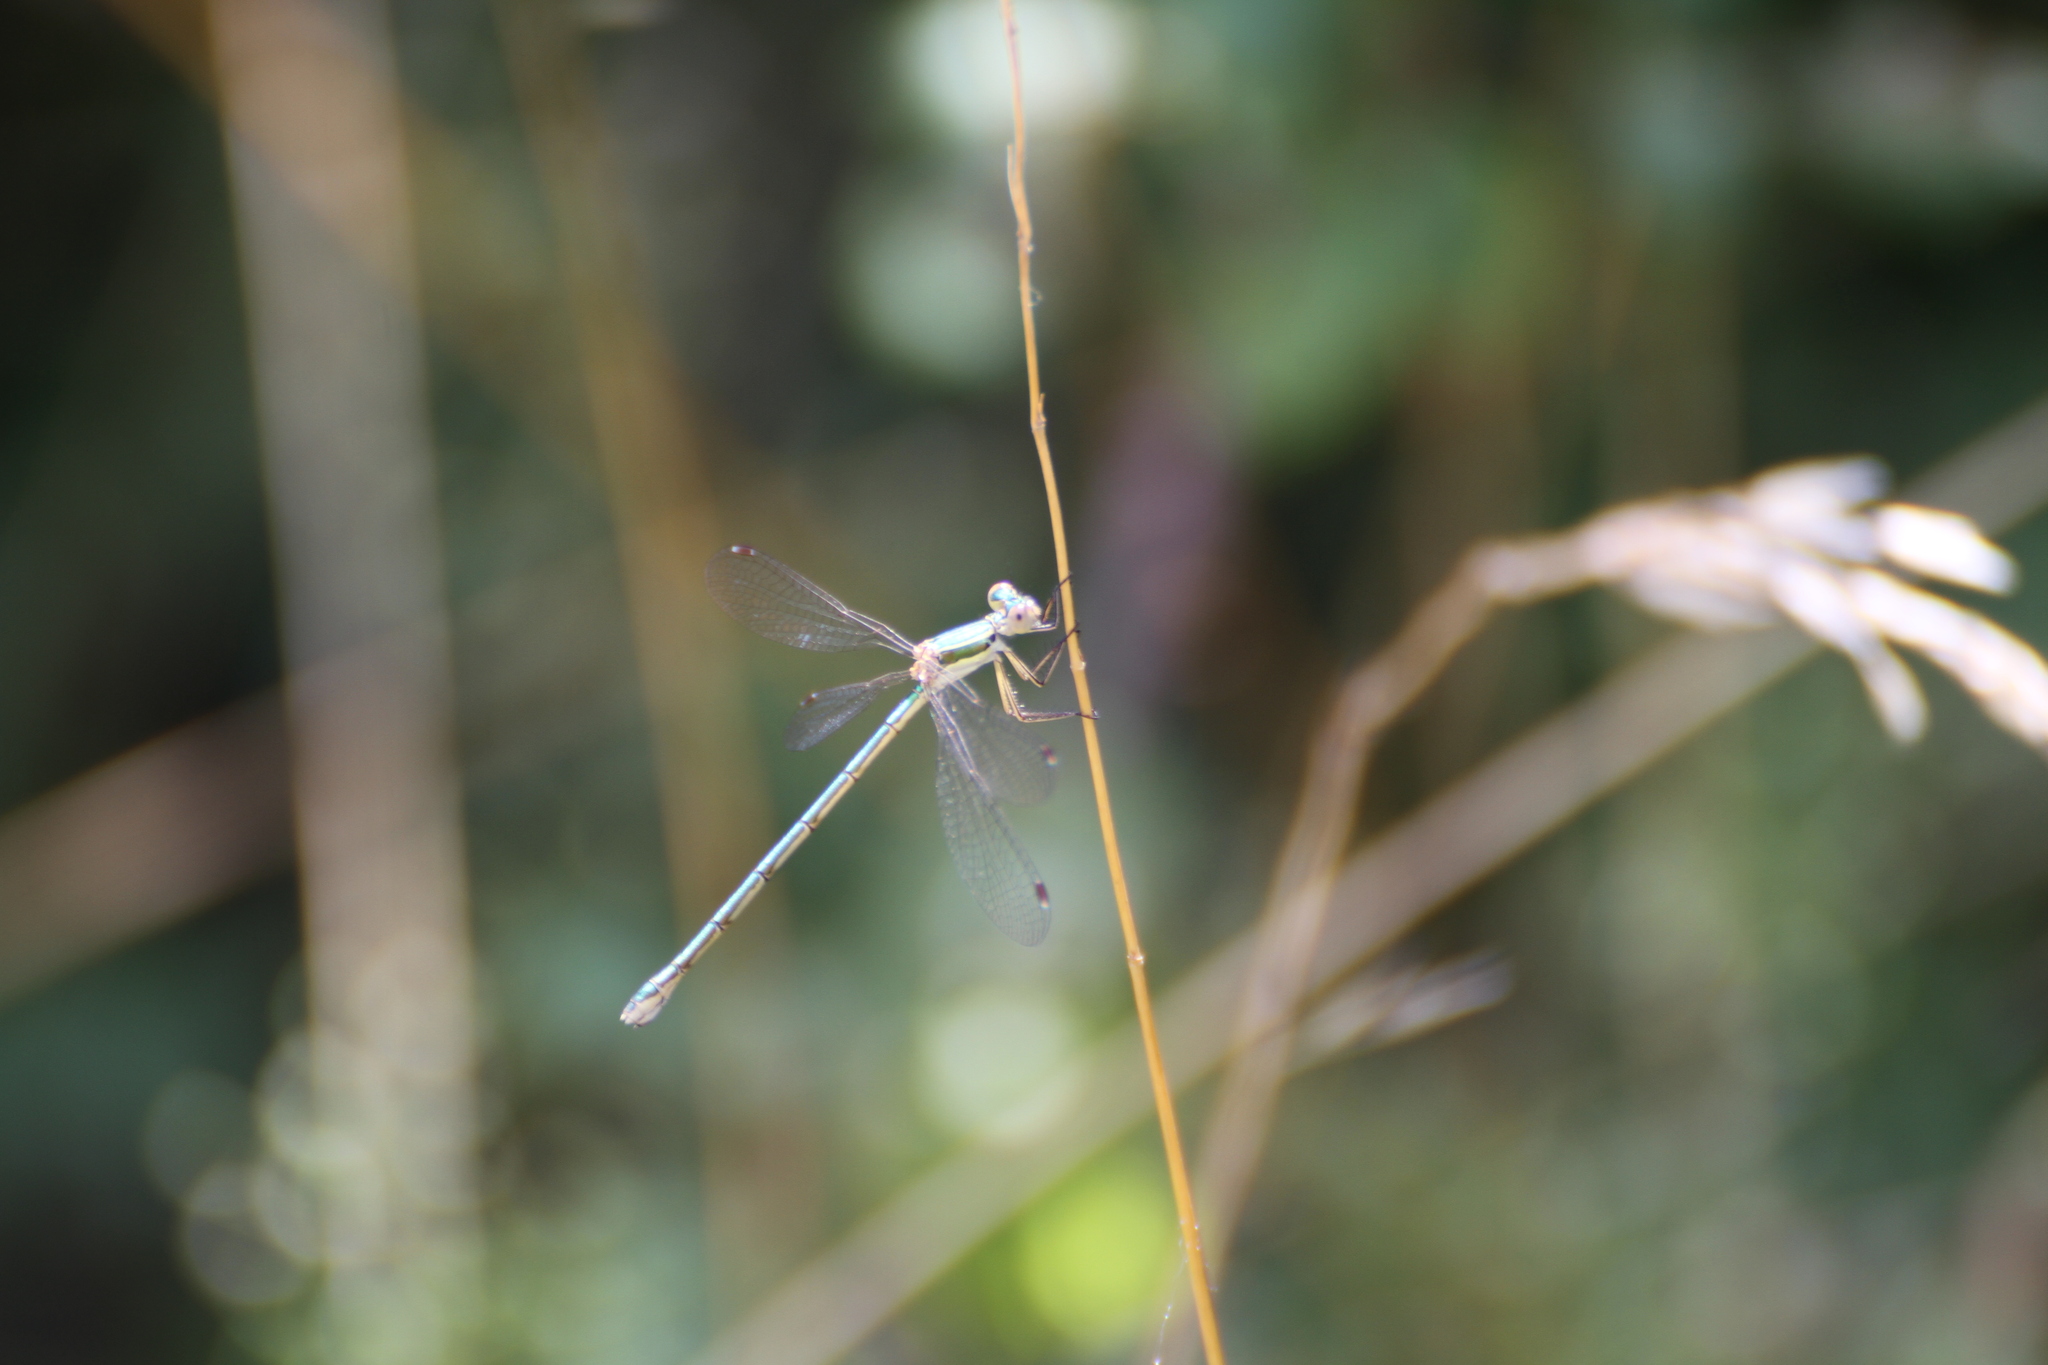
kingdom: Animalia
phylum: Arthropoda
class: Insecta
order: Odonata
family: Lestidae
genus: Lestes
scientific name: Lestes virens
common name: Small emerald spreadwing
